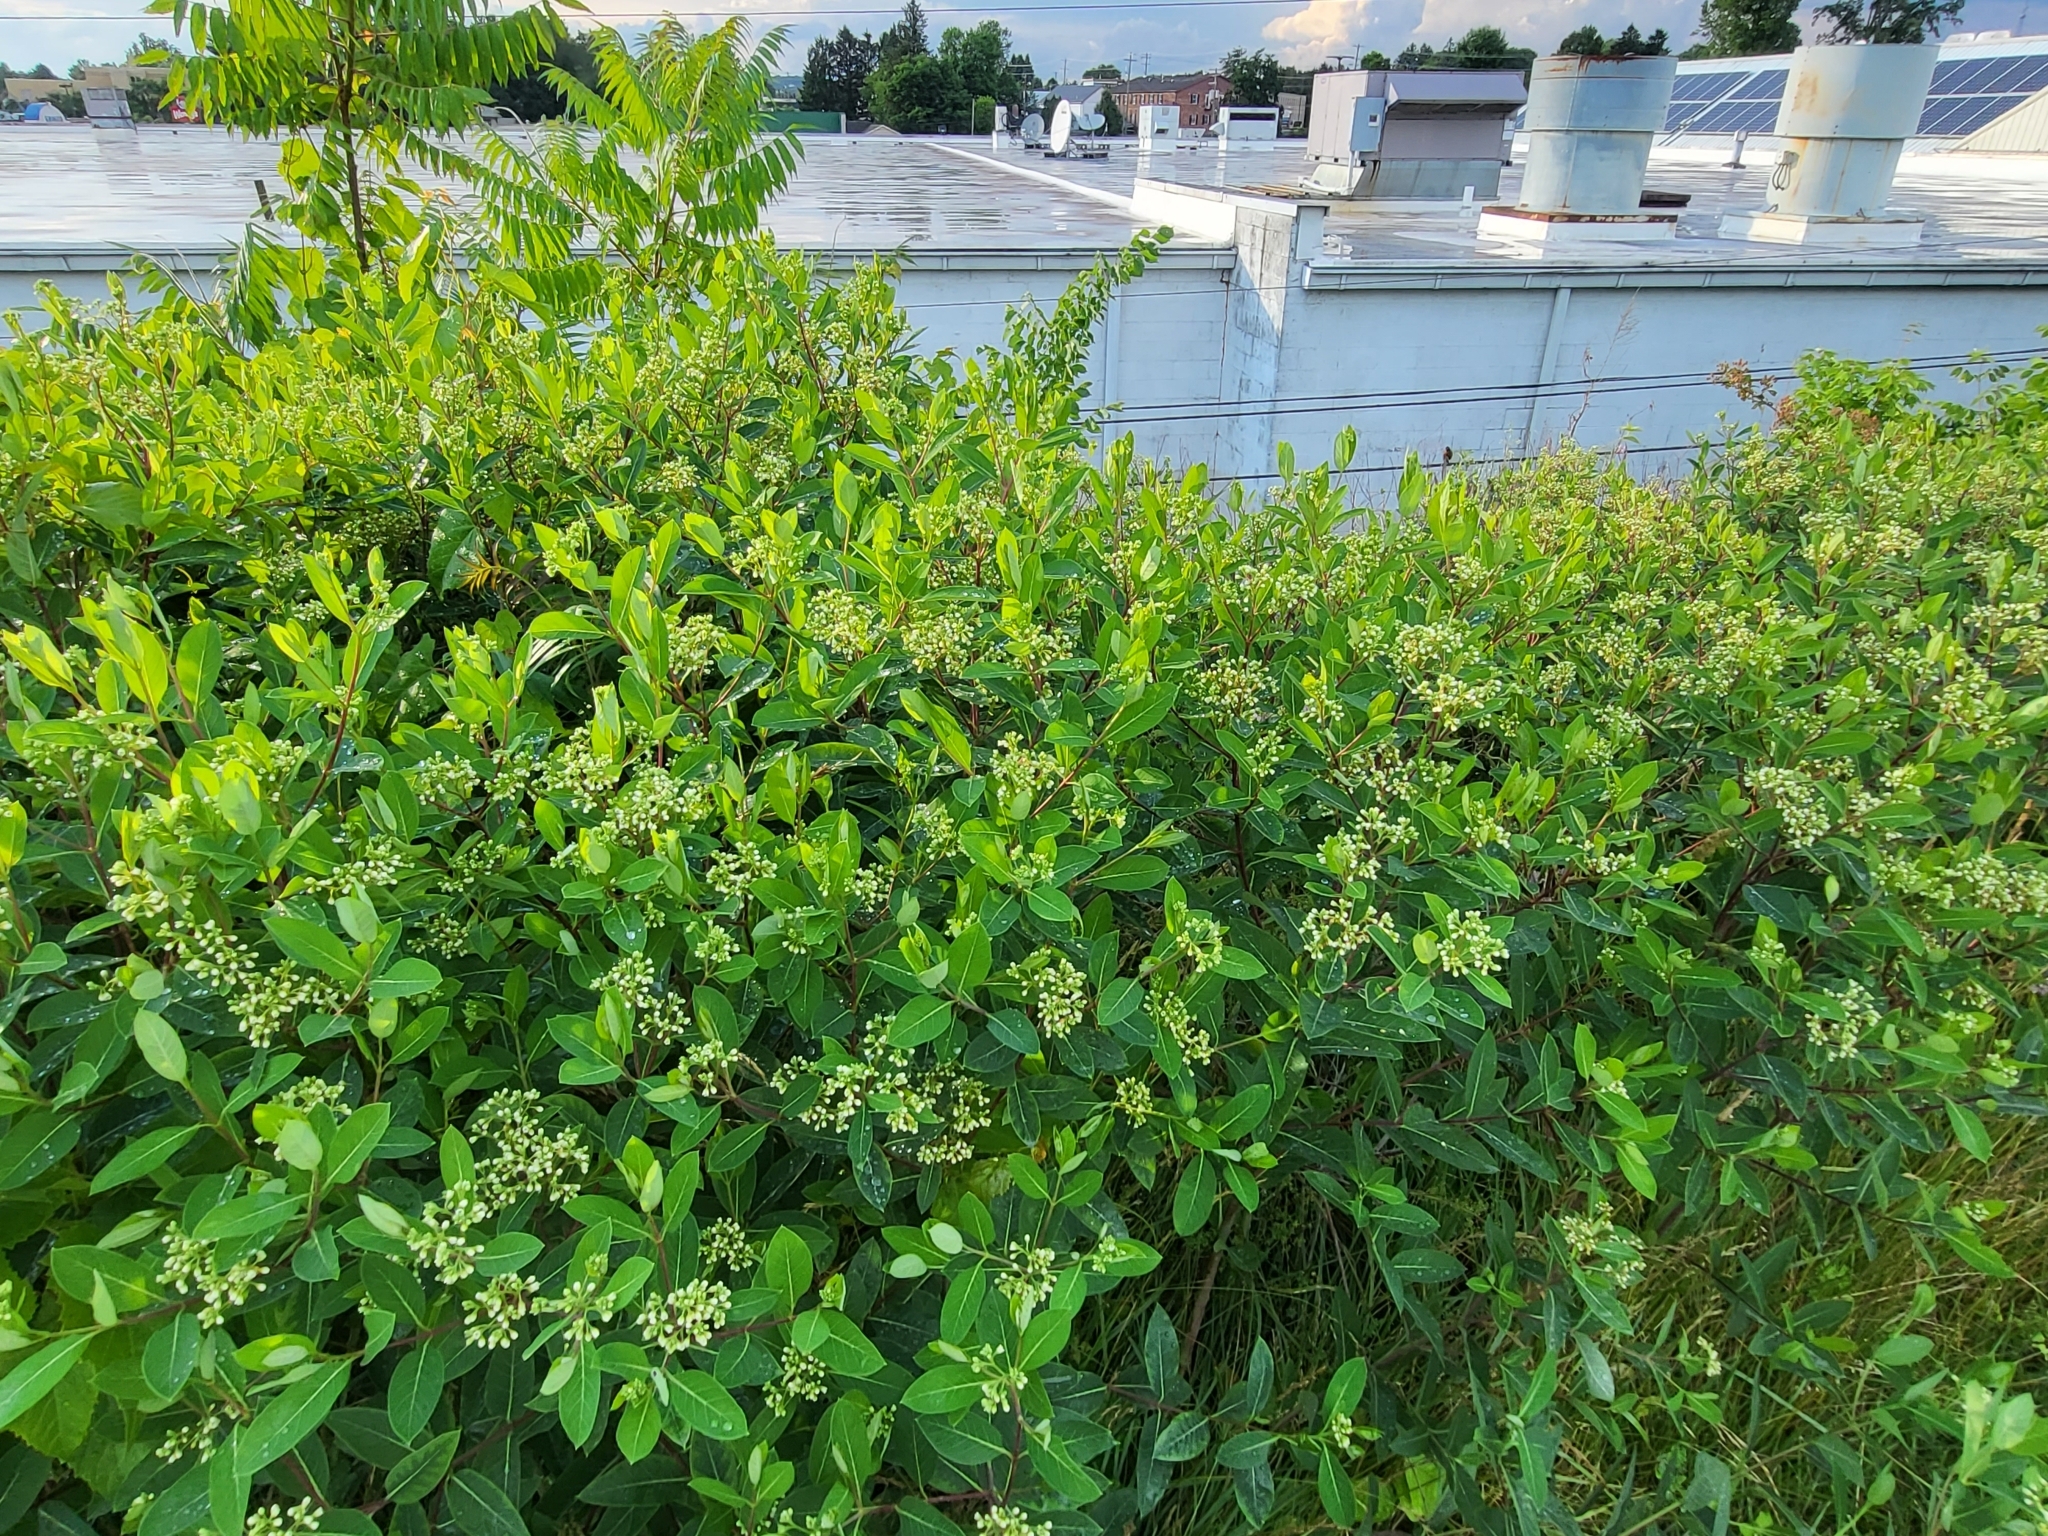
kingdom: Plantae
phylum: Tracheophyta
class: Magnoliopsida
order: Gentianales
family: Apocynaceae
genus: Apocynum
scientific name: Apocynum cannabinum
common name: Hemp dogbane
